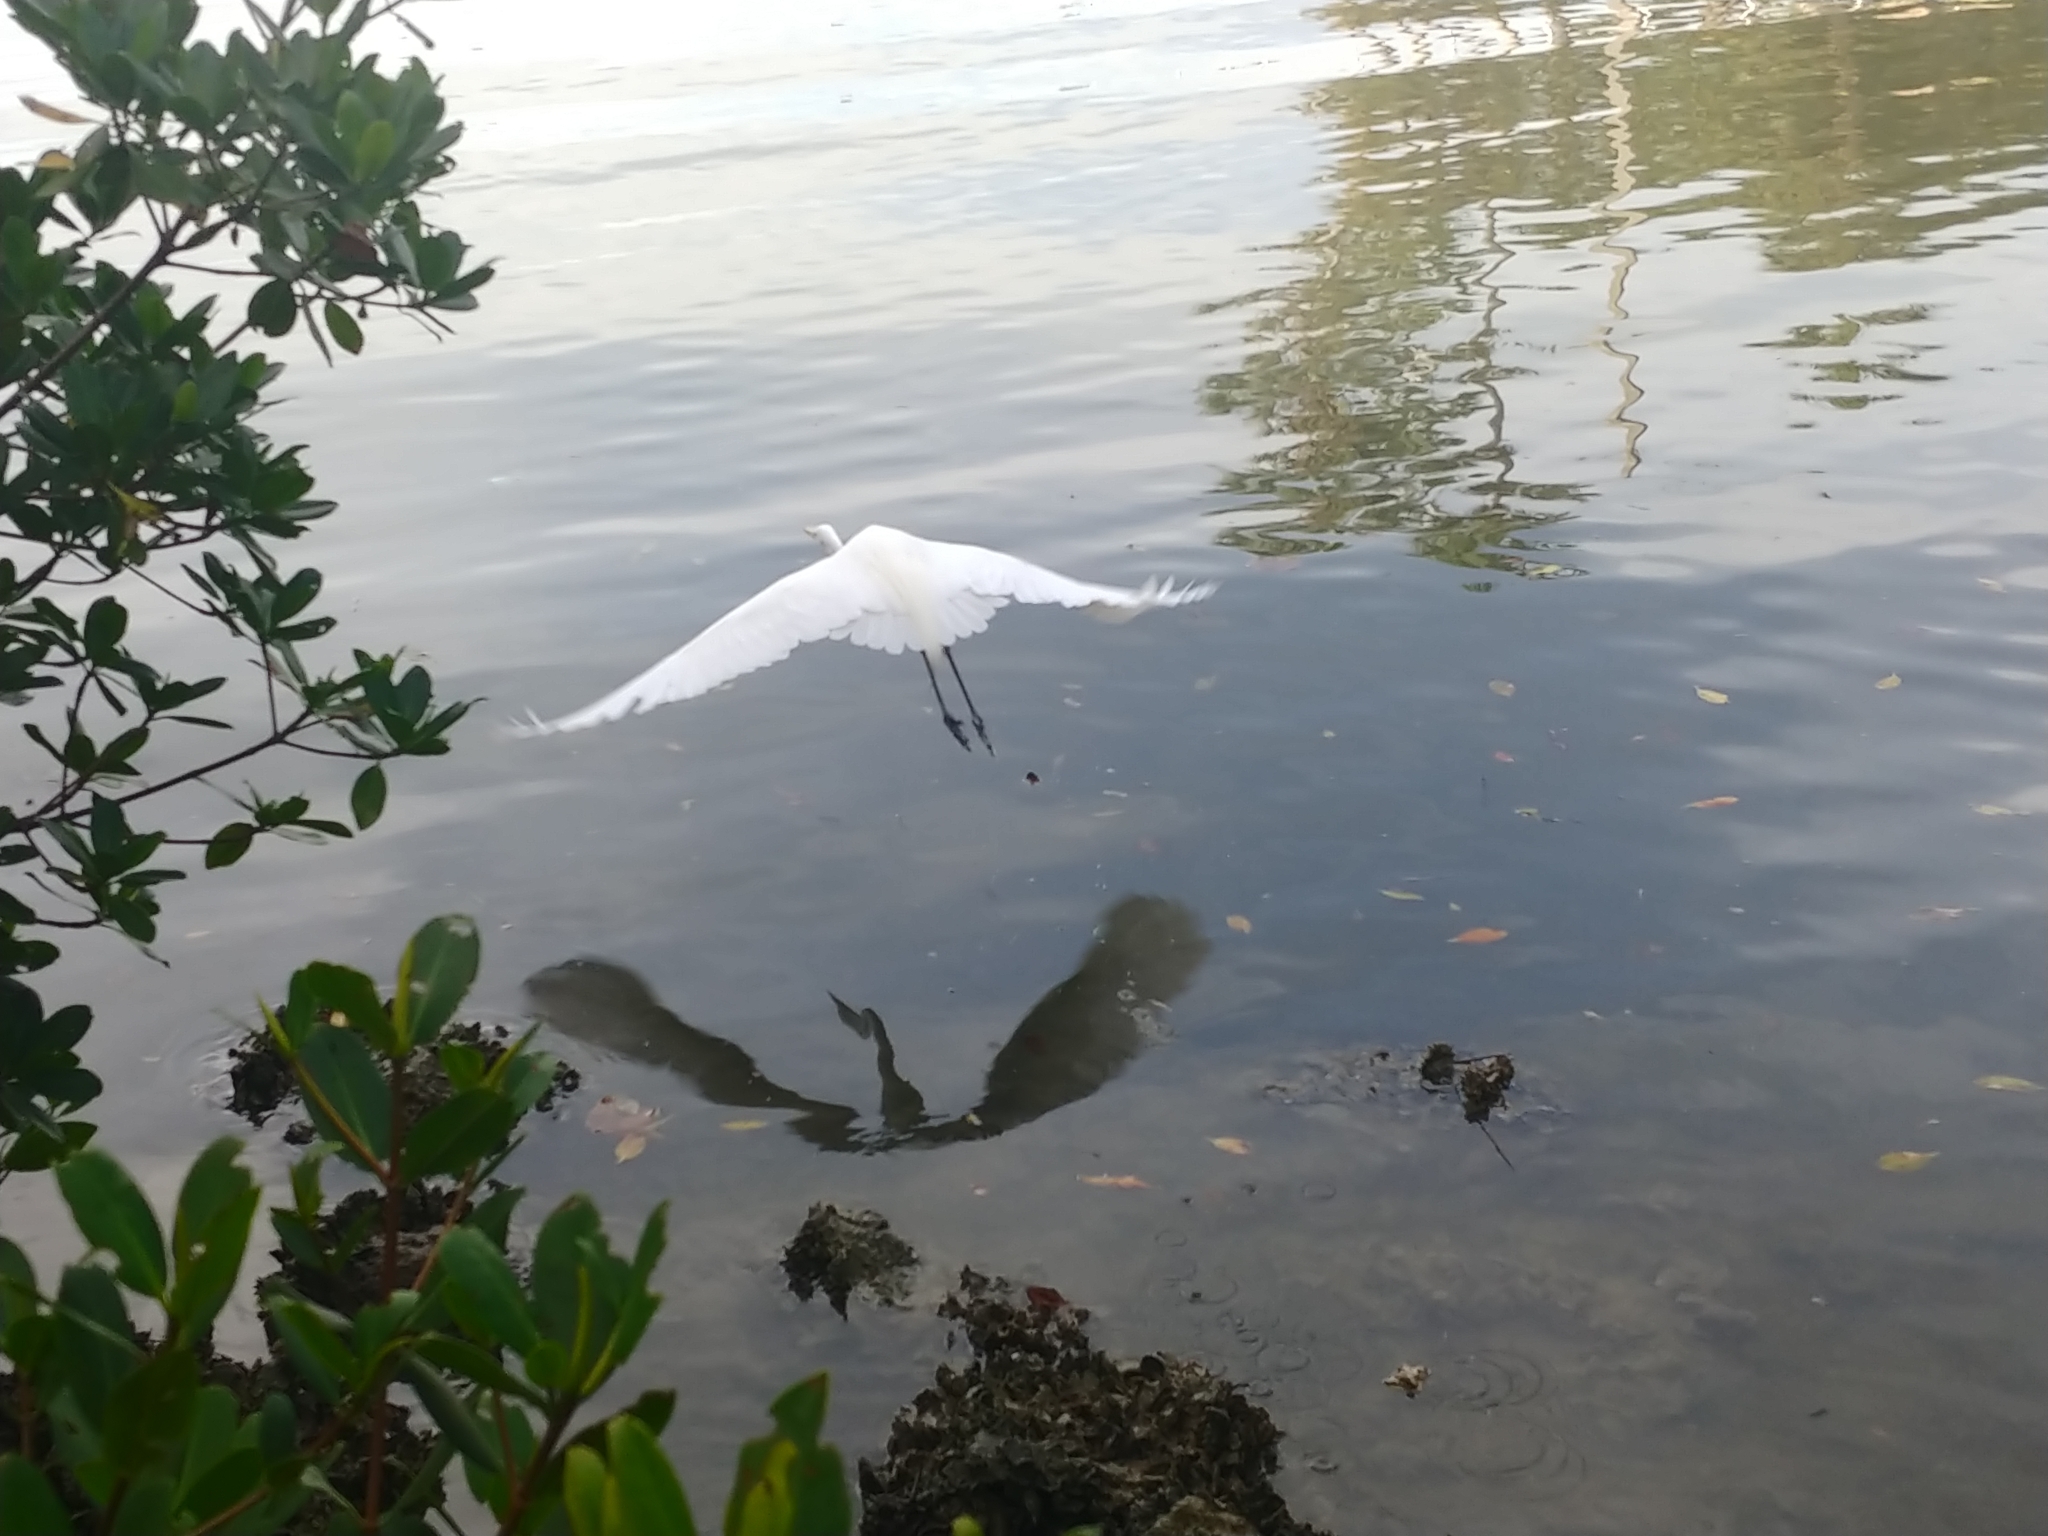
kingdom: Animalia
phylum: Chordata
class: Aves
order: Pelecaniformes
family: Ardeidae
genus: Ardea
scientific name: Ardea alba
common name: Great egret
